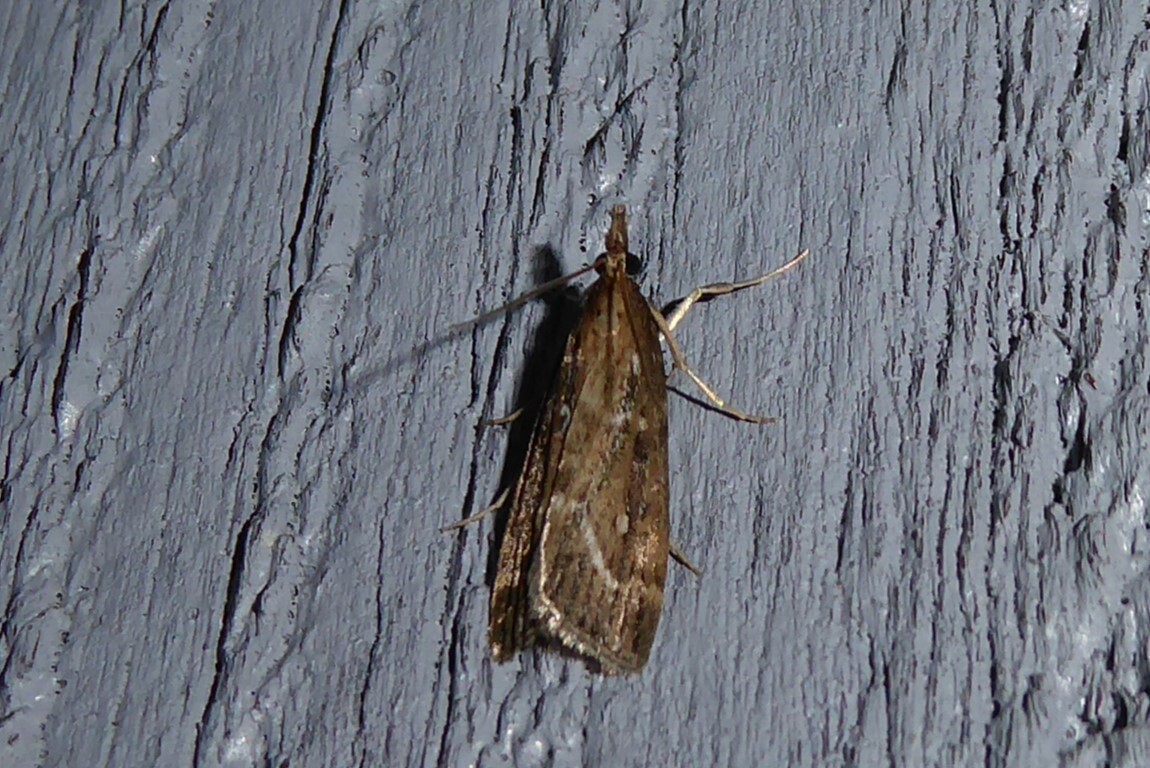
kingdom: Animalia
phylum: Arthropoda
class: Insecta
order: Lepidoptera
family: Crambidae
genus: Eudonia
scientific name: Eudonia octophora
